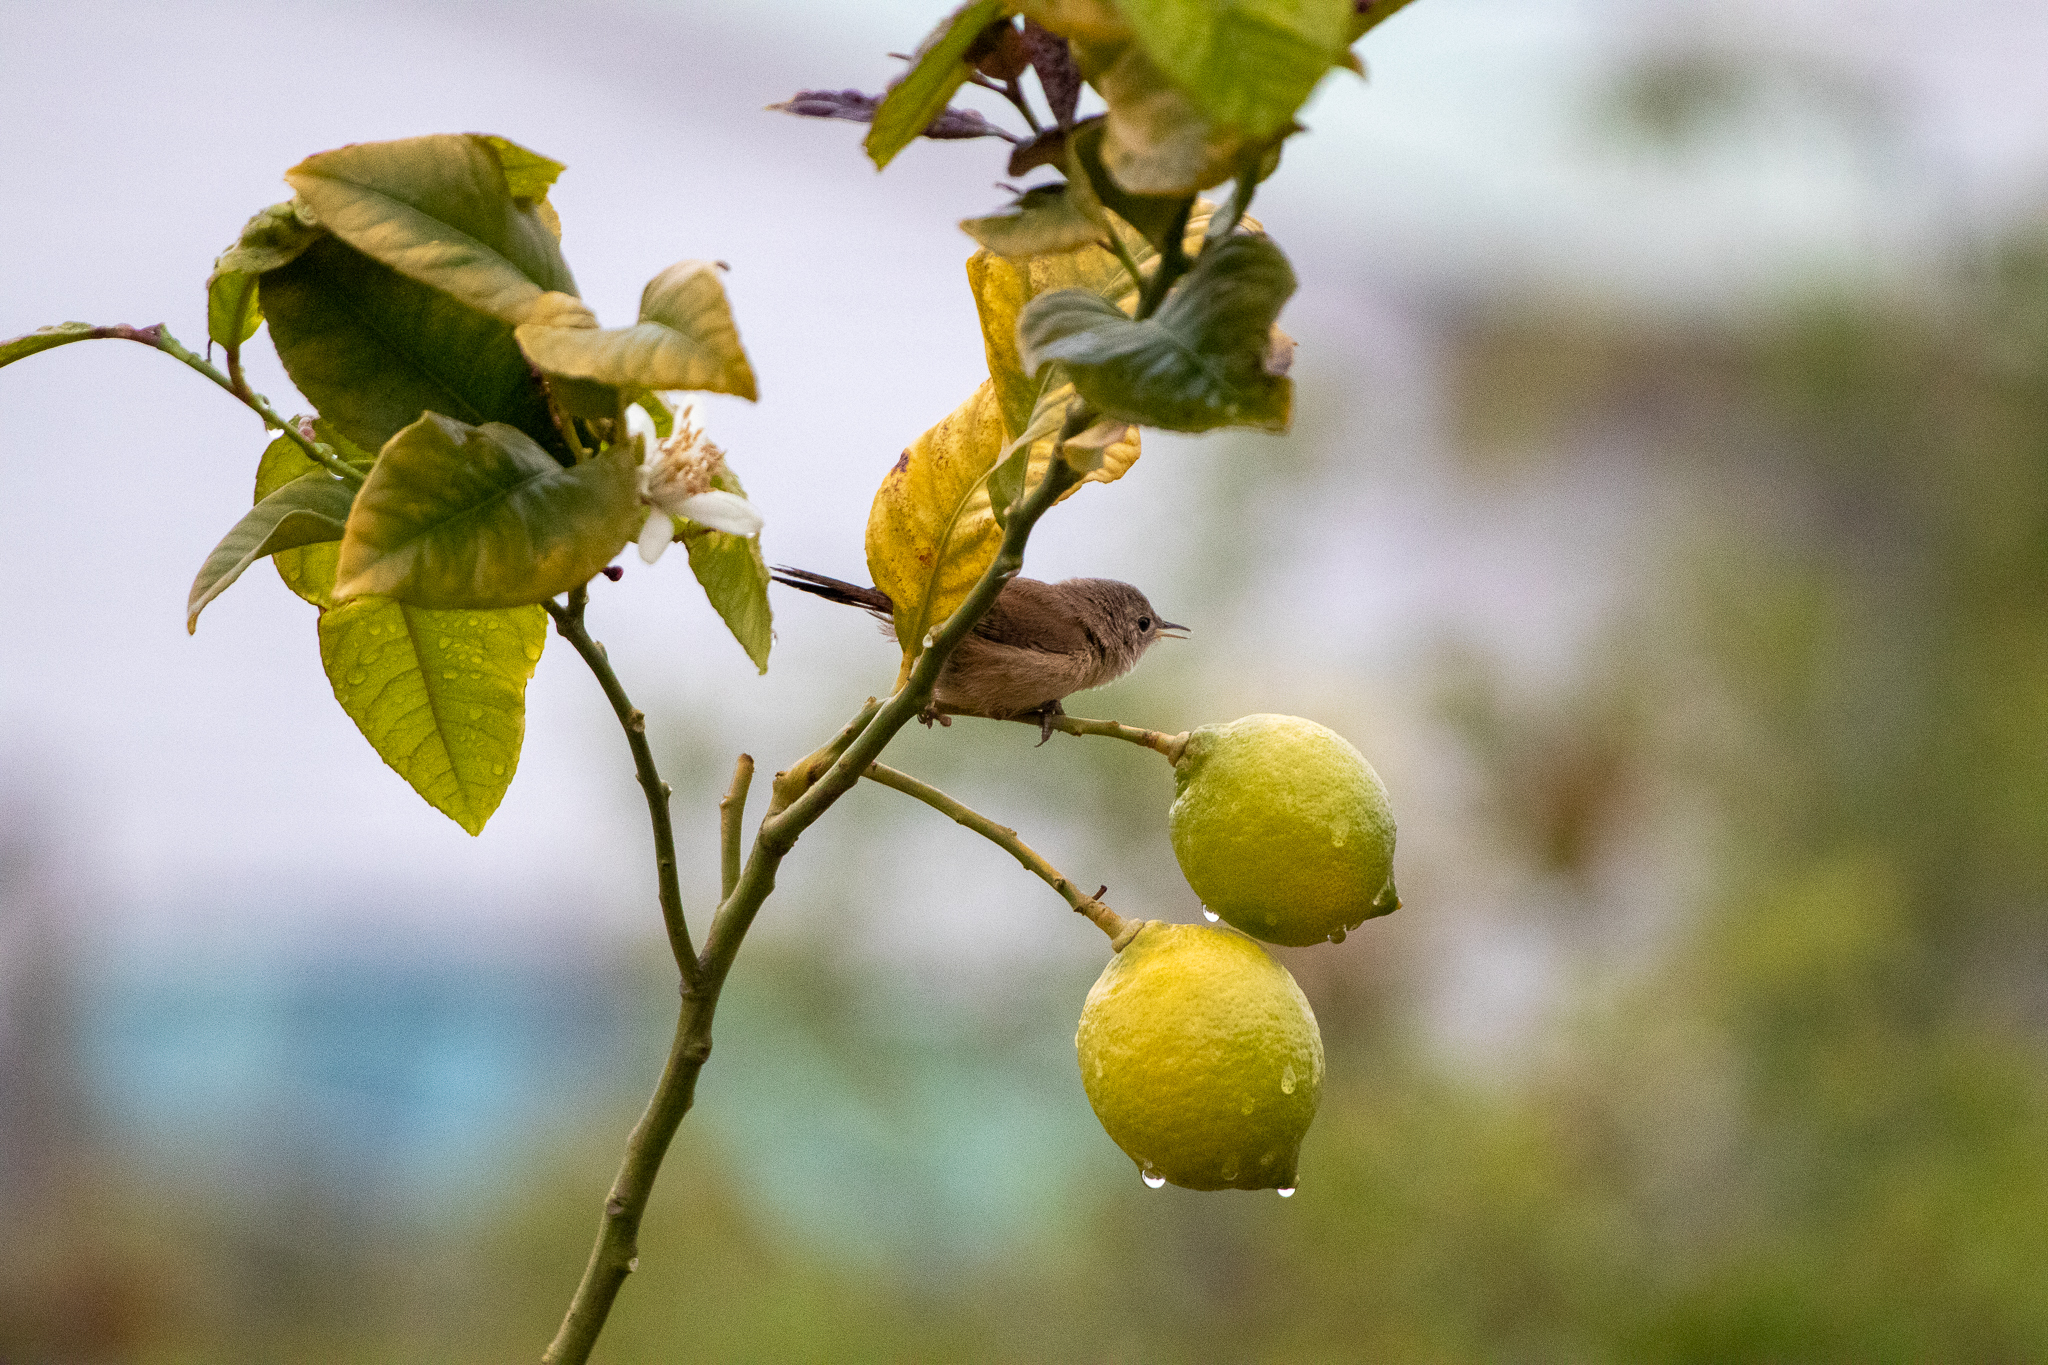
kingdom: Animalia
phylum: Chordata
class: Aves
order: Passeriformes
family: Troglodytidae
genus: Troglodytes
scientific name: Troglodytes aedon
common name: House wren
